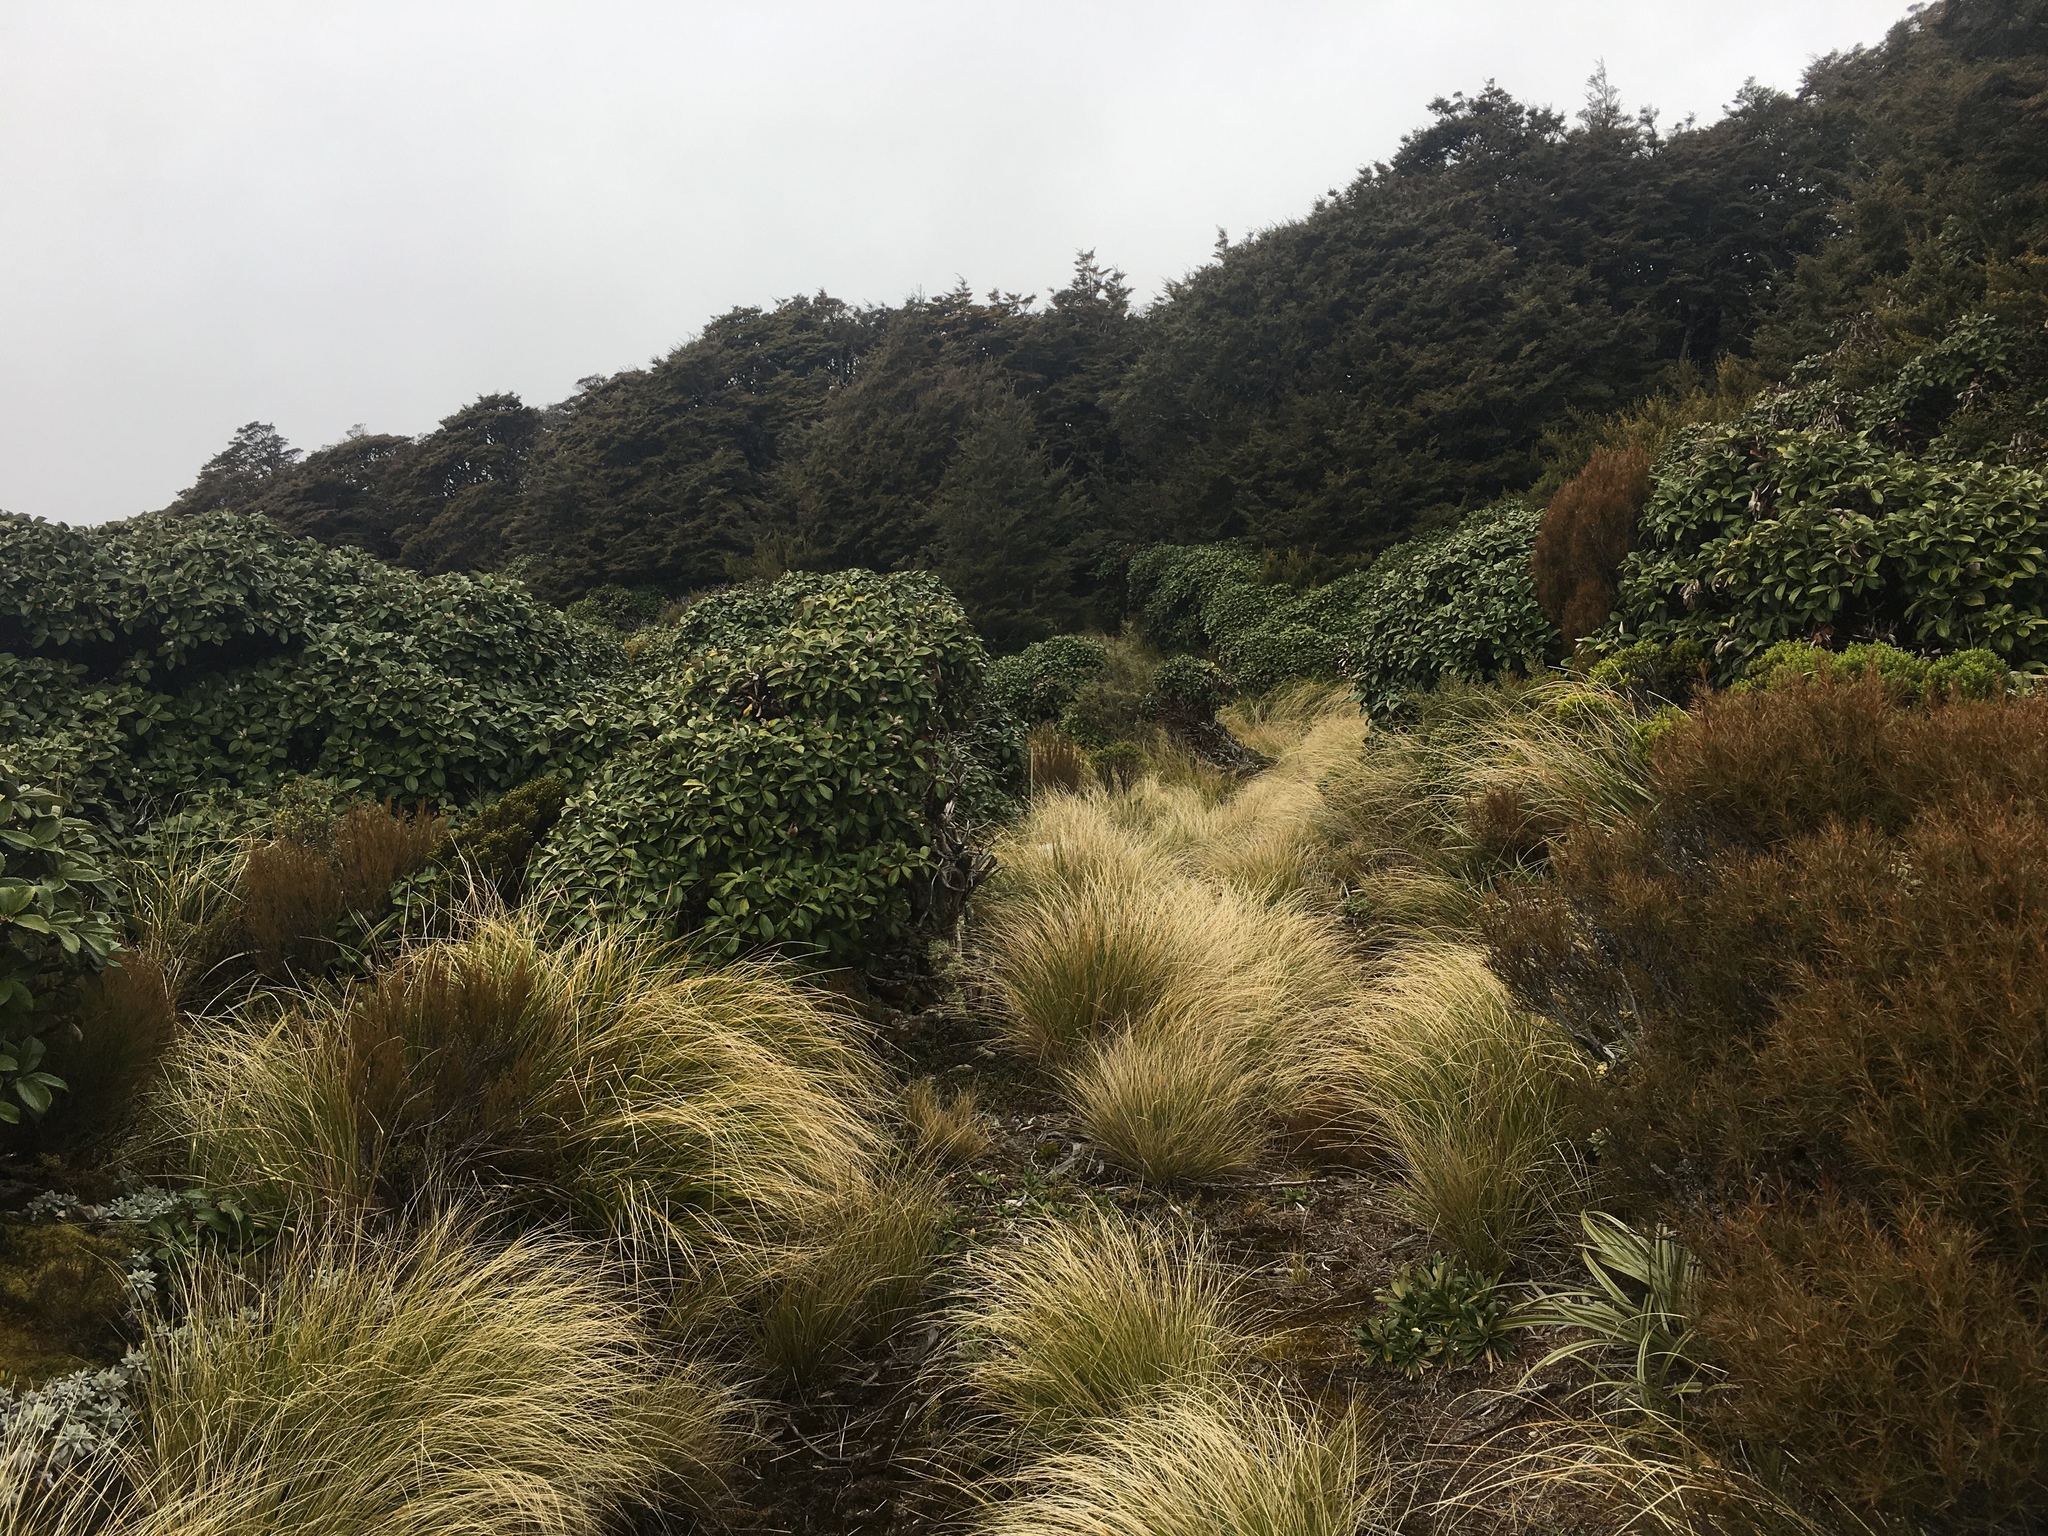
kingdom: Plantae
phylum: Tracheophyta
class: Magnoliopsida
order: Asterales
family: Asteraceae
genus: Macrolearia
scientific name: Macrolearia colensoi
